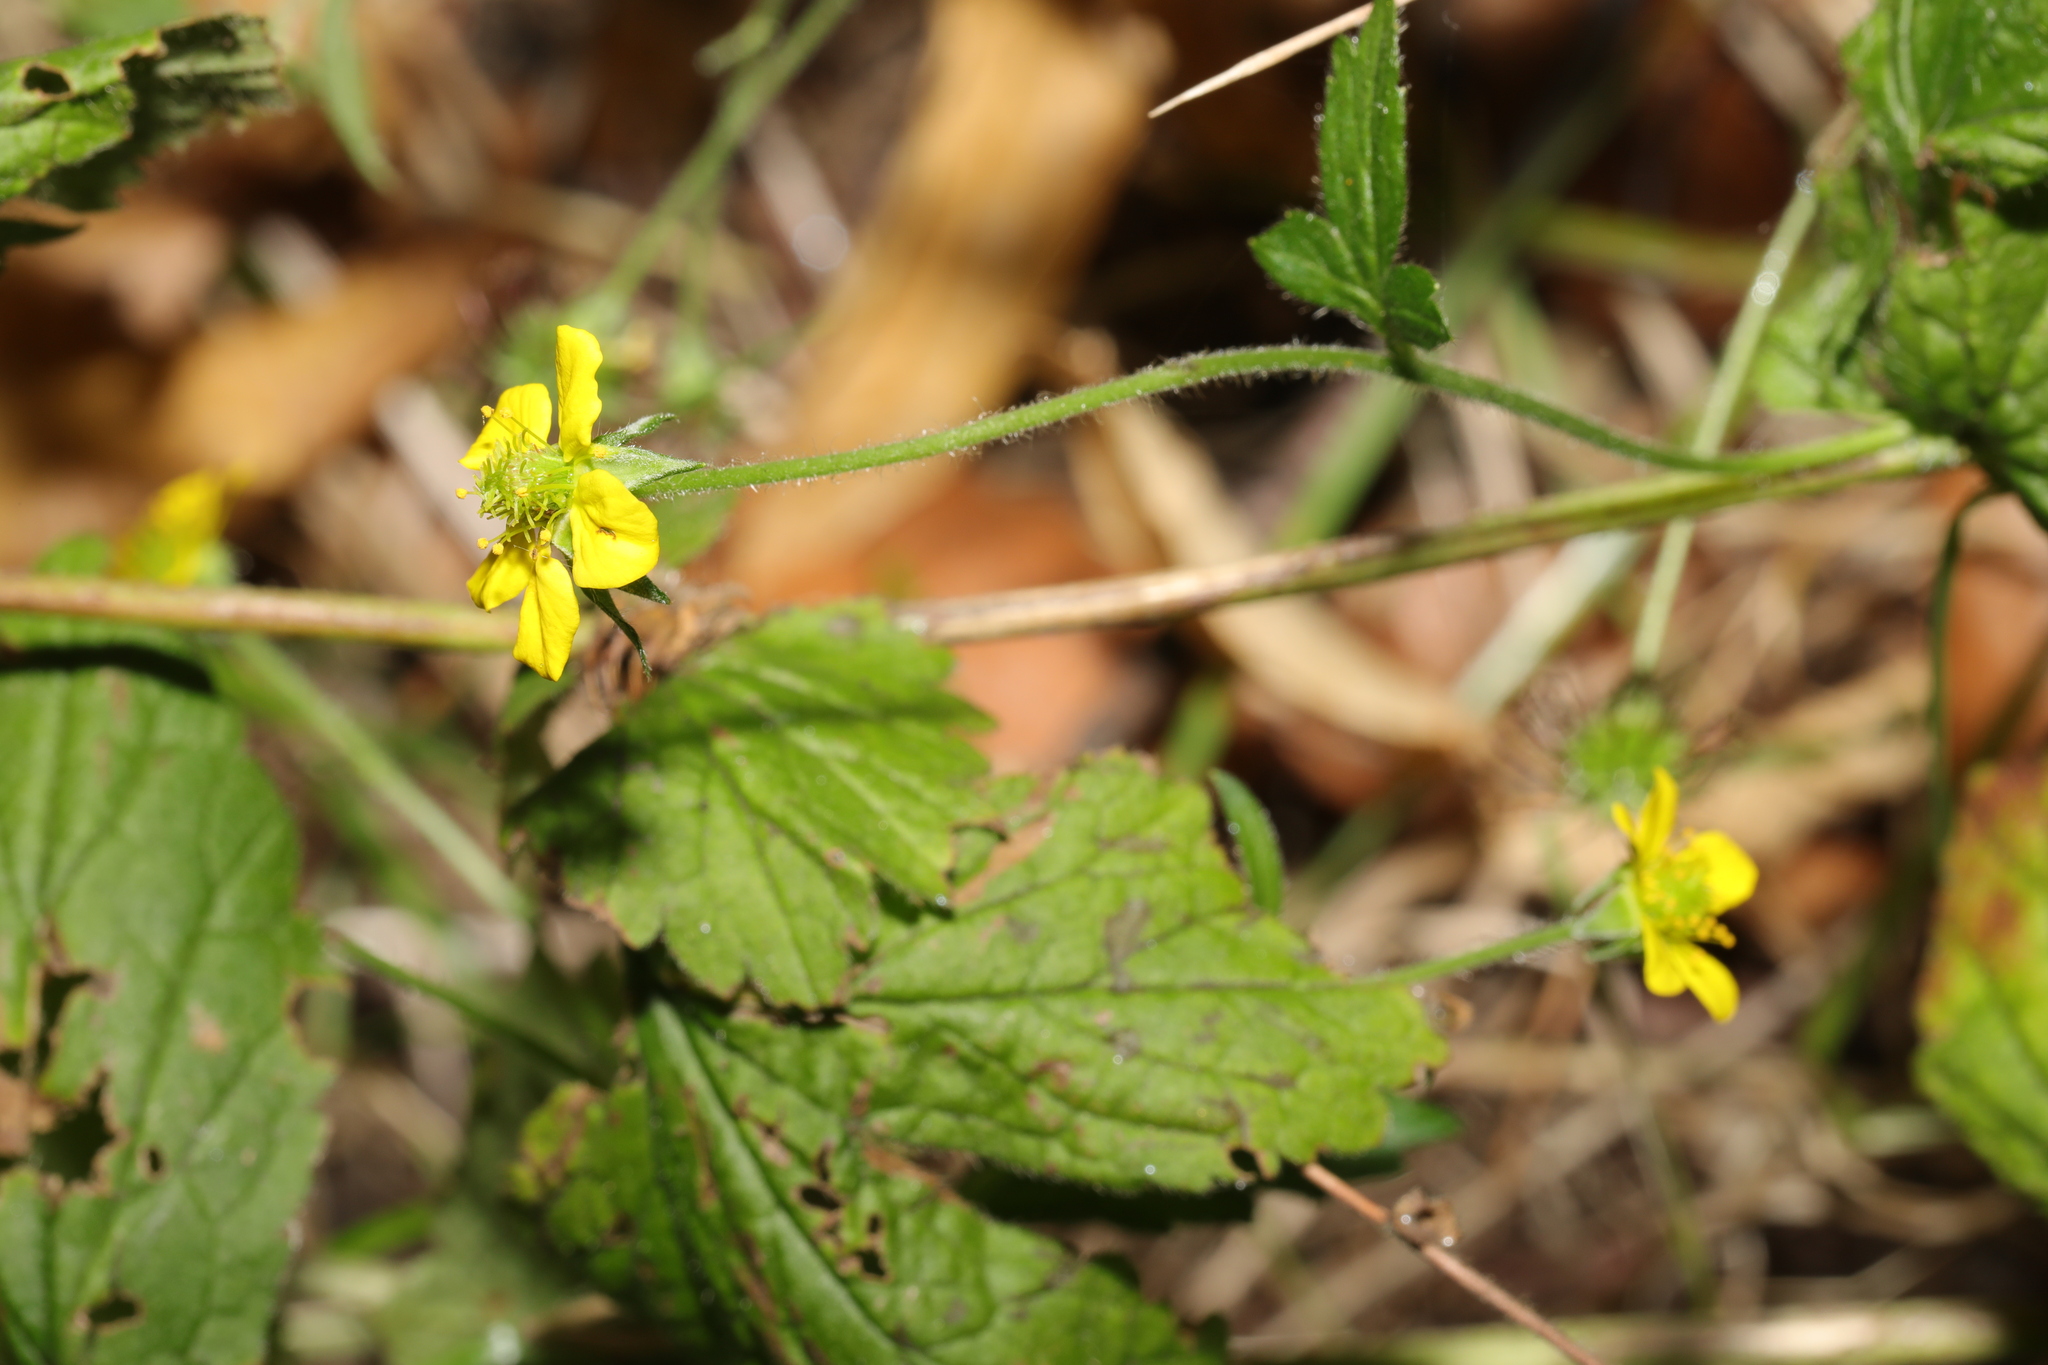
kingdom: Plantae
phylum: Tracheophyta
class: Magnoliopsida
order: Rosales
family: Rosaceae
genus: Geum
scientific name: Geum urbanum
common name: Wood avens
